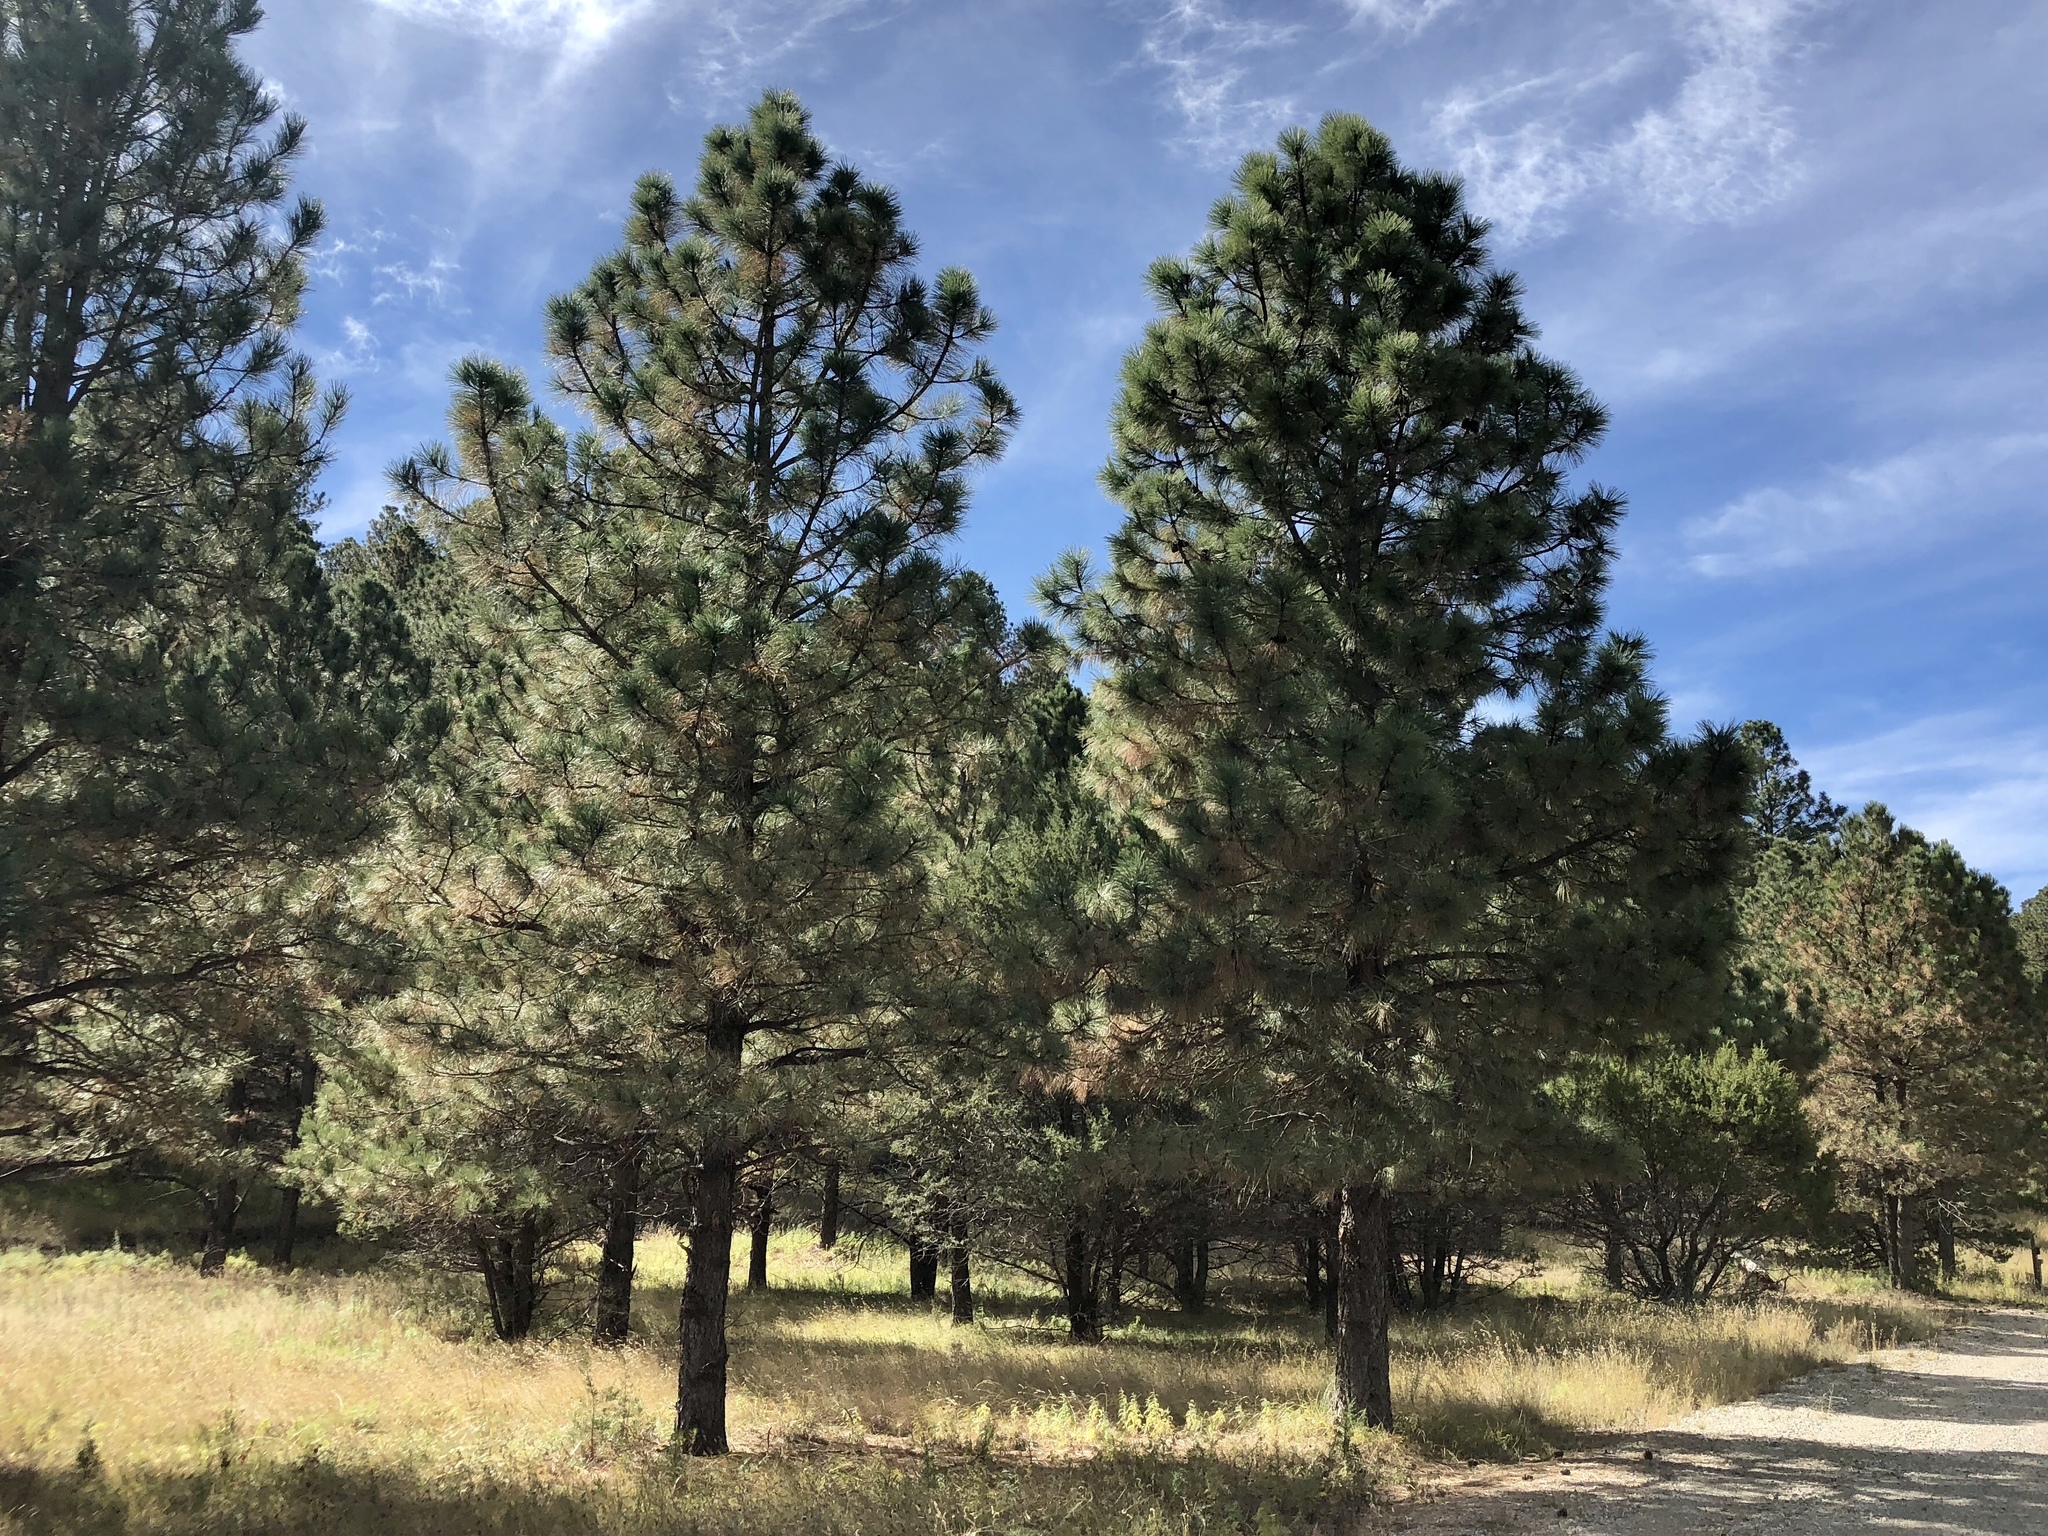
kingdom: Plantae
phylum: Tracheophyta
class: Pinopsida
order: Pinales
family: Pinaceae
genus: Pinus
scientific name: Pinus ponderosa
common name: Western yellow-pine
